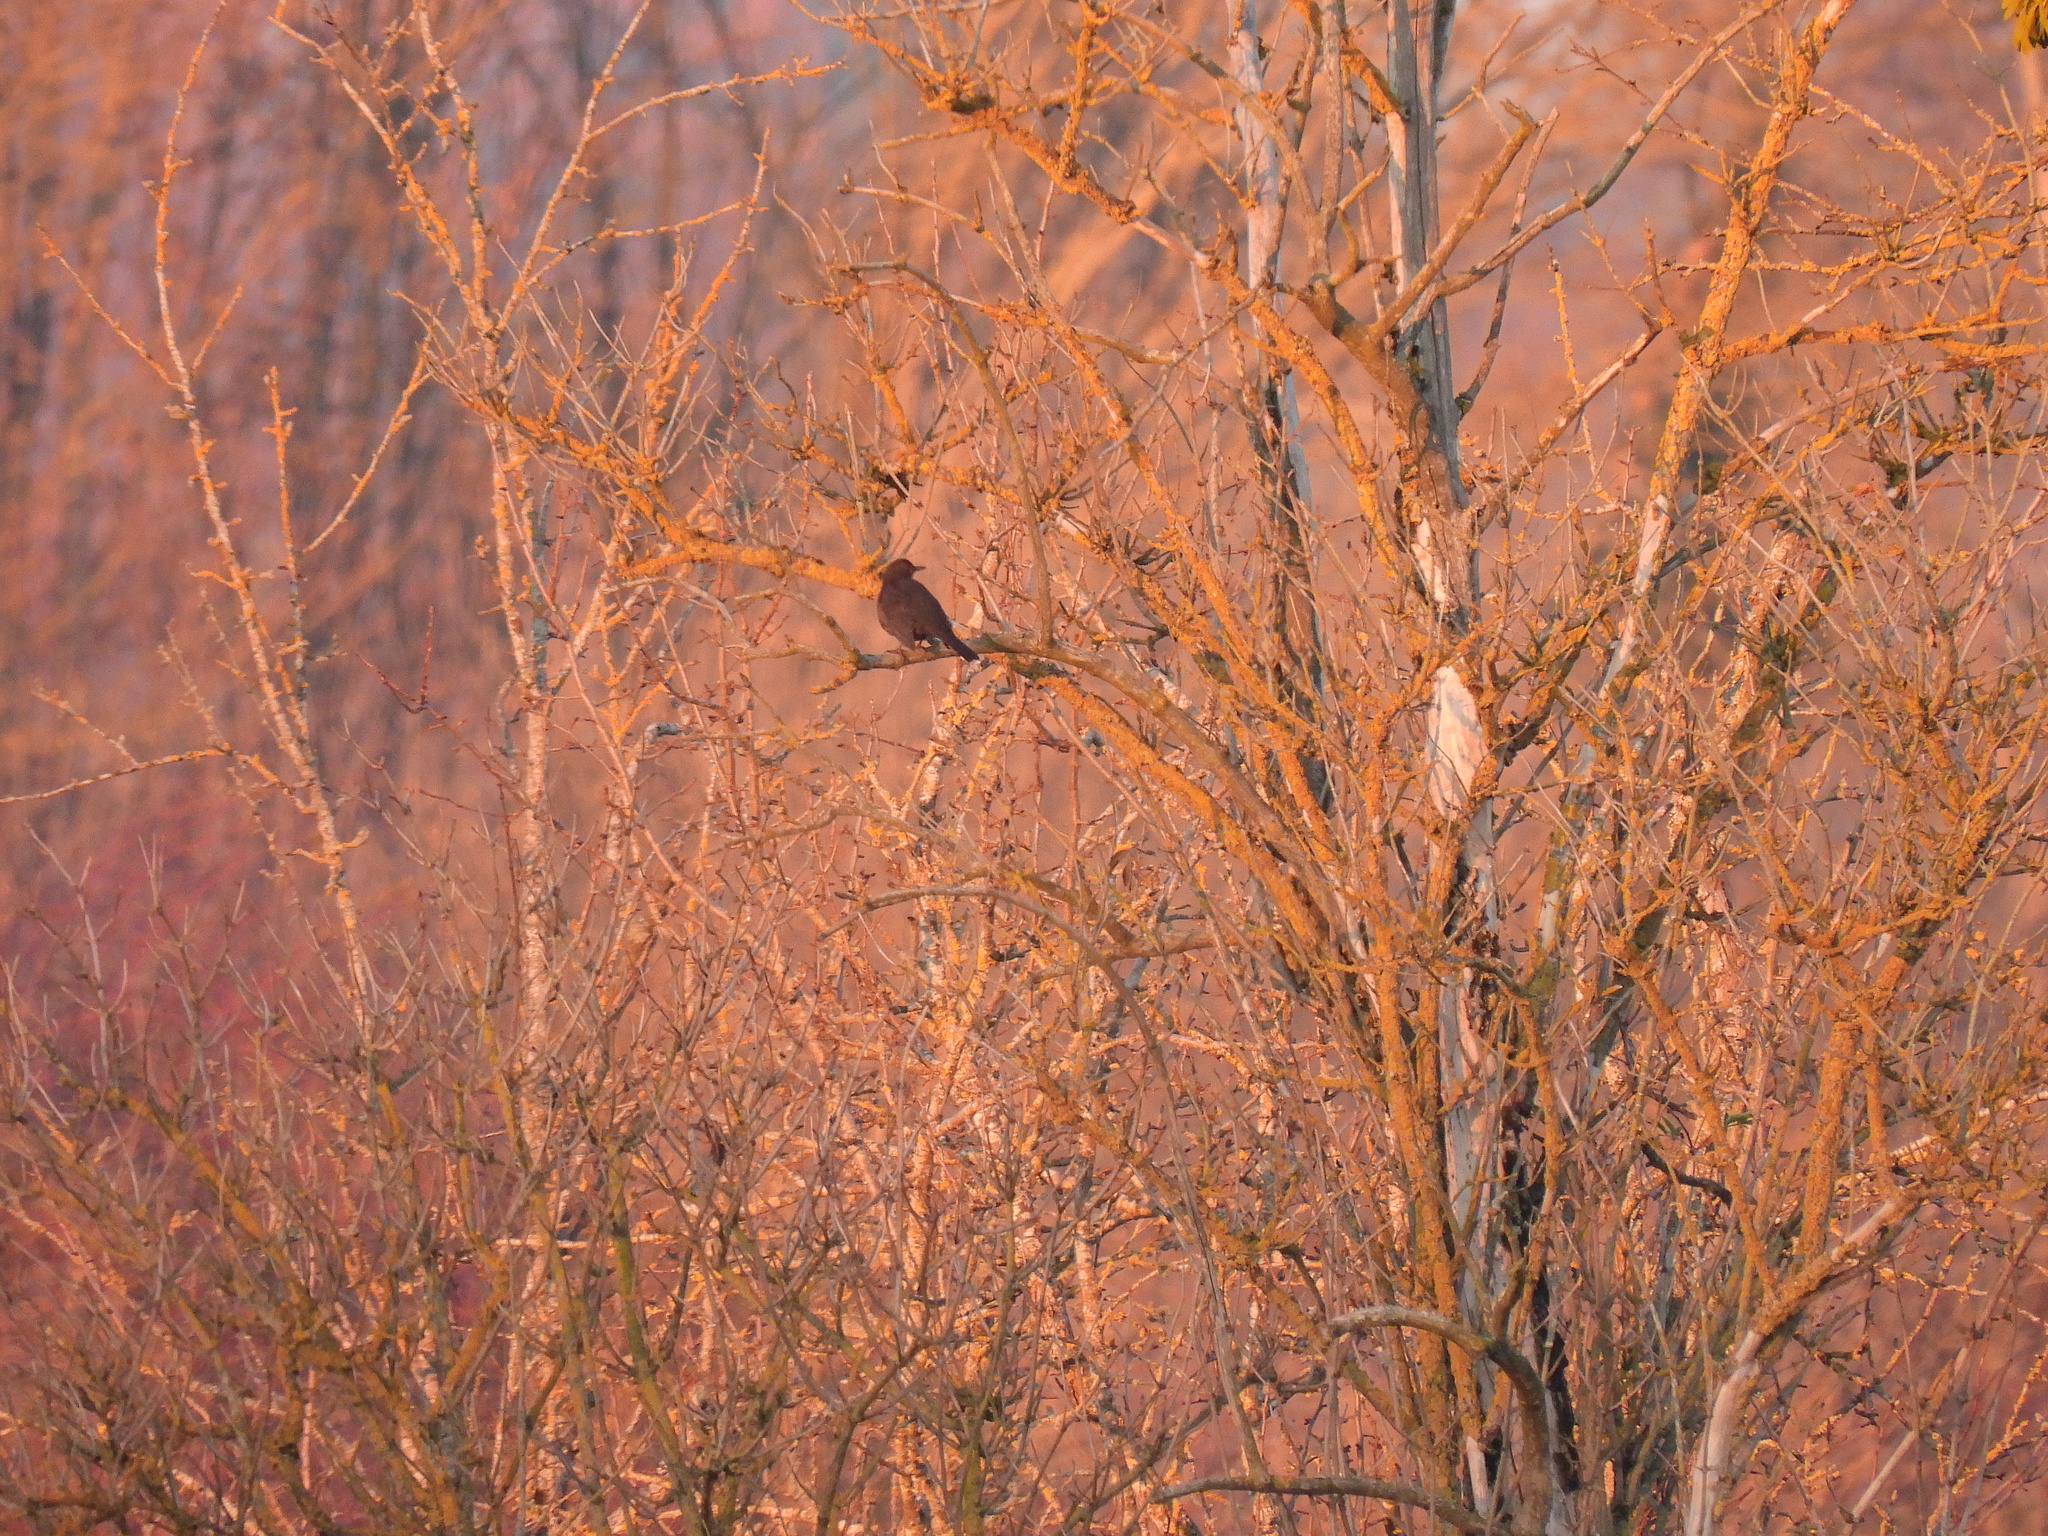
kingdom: Animalia
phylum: Chordata
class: Aves
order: Passeriformes
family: Turdidae
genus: Turdus
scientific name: Turdus merula
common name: Common blackbird
